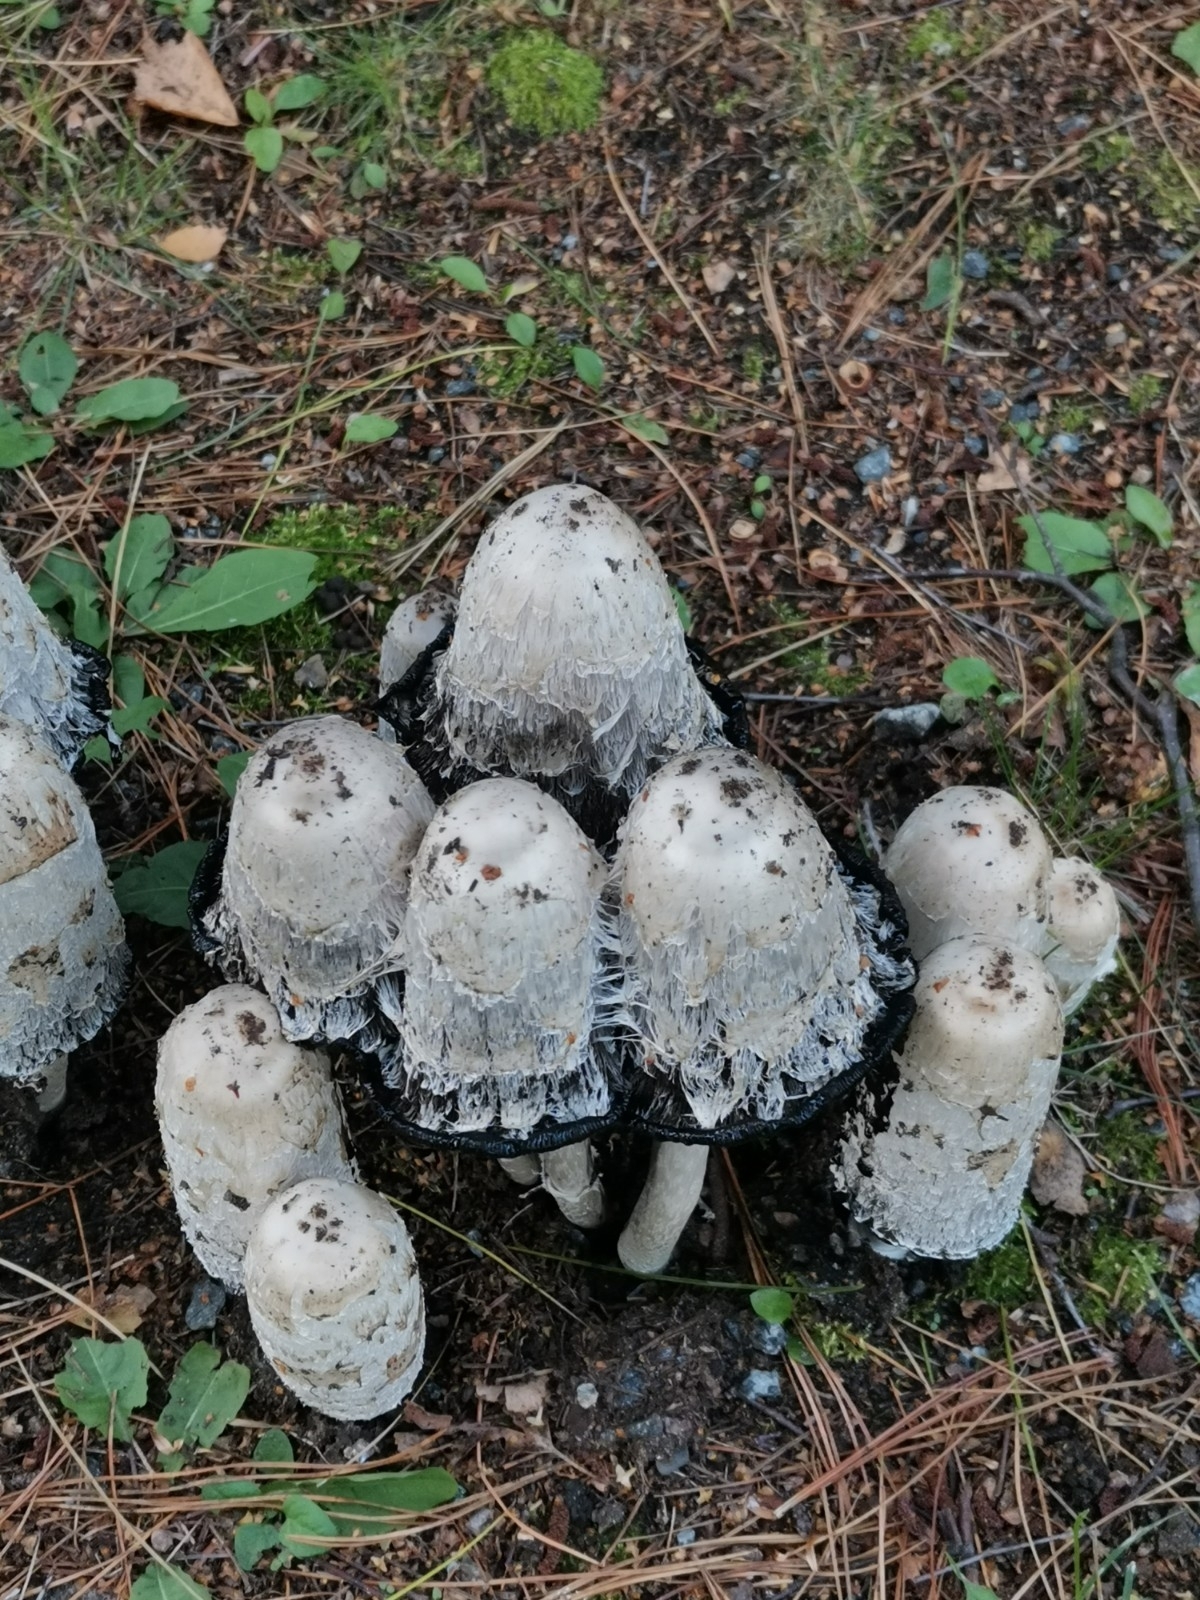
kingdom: Fungi
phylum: Basidiomycota
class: Agaricomycetes
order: Agaricales
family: Agaricaceae
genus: Coprinus
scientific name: Coprinus comatus
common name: Lawyer's wig
